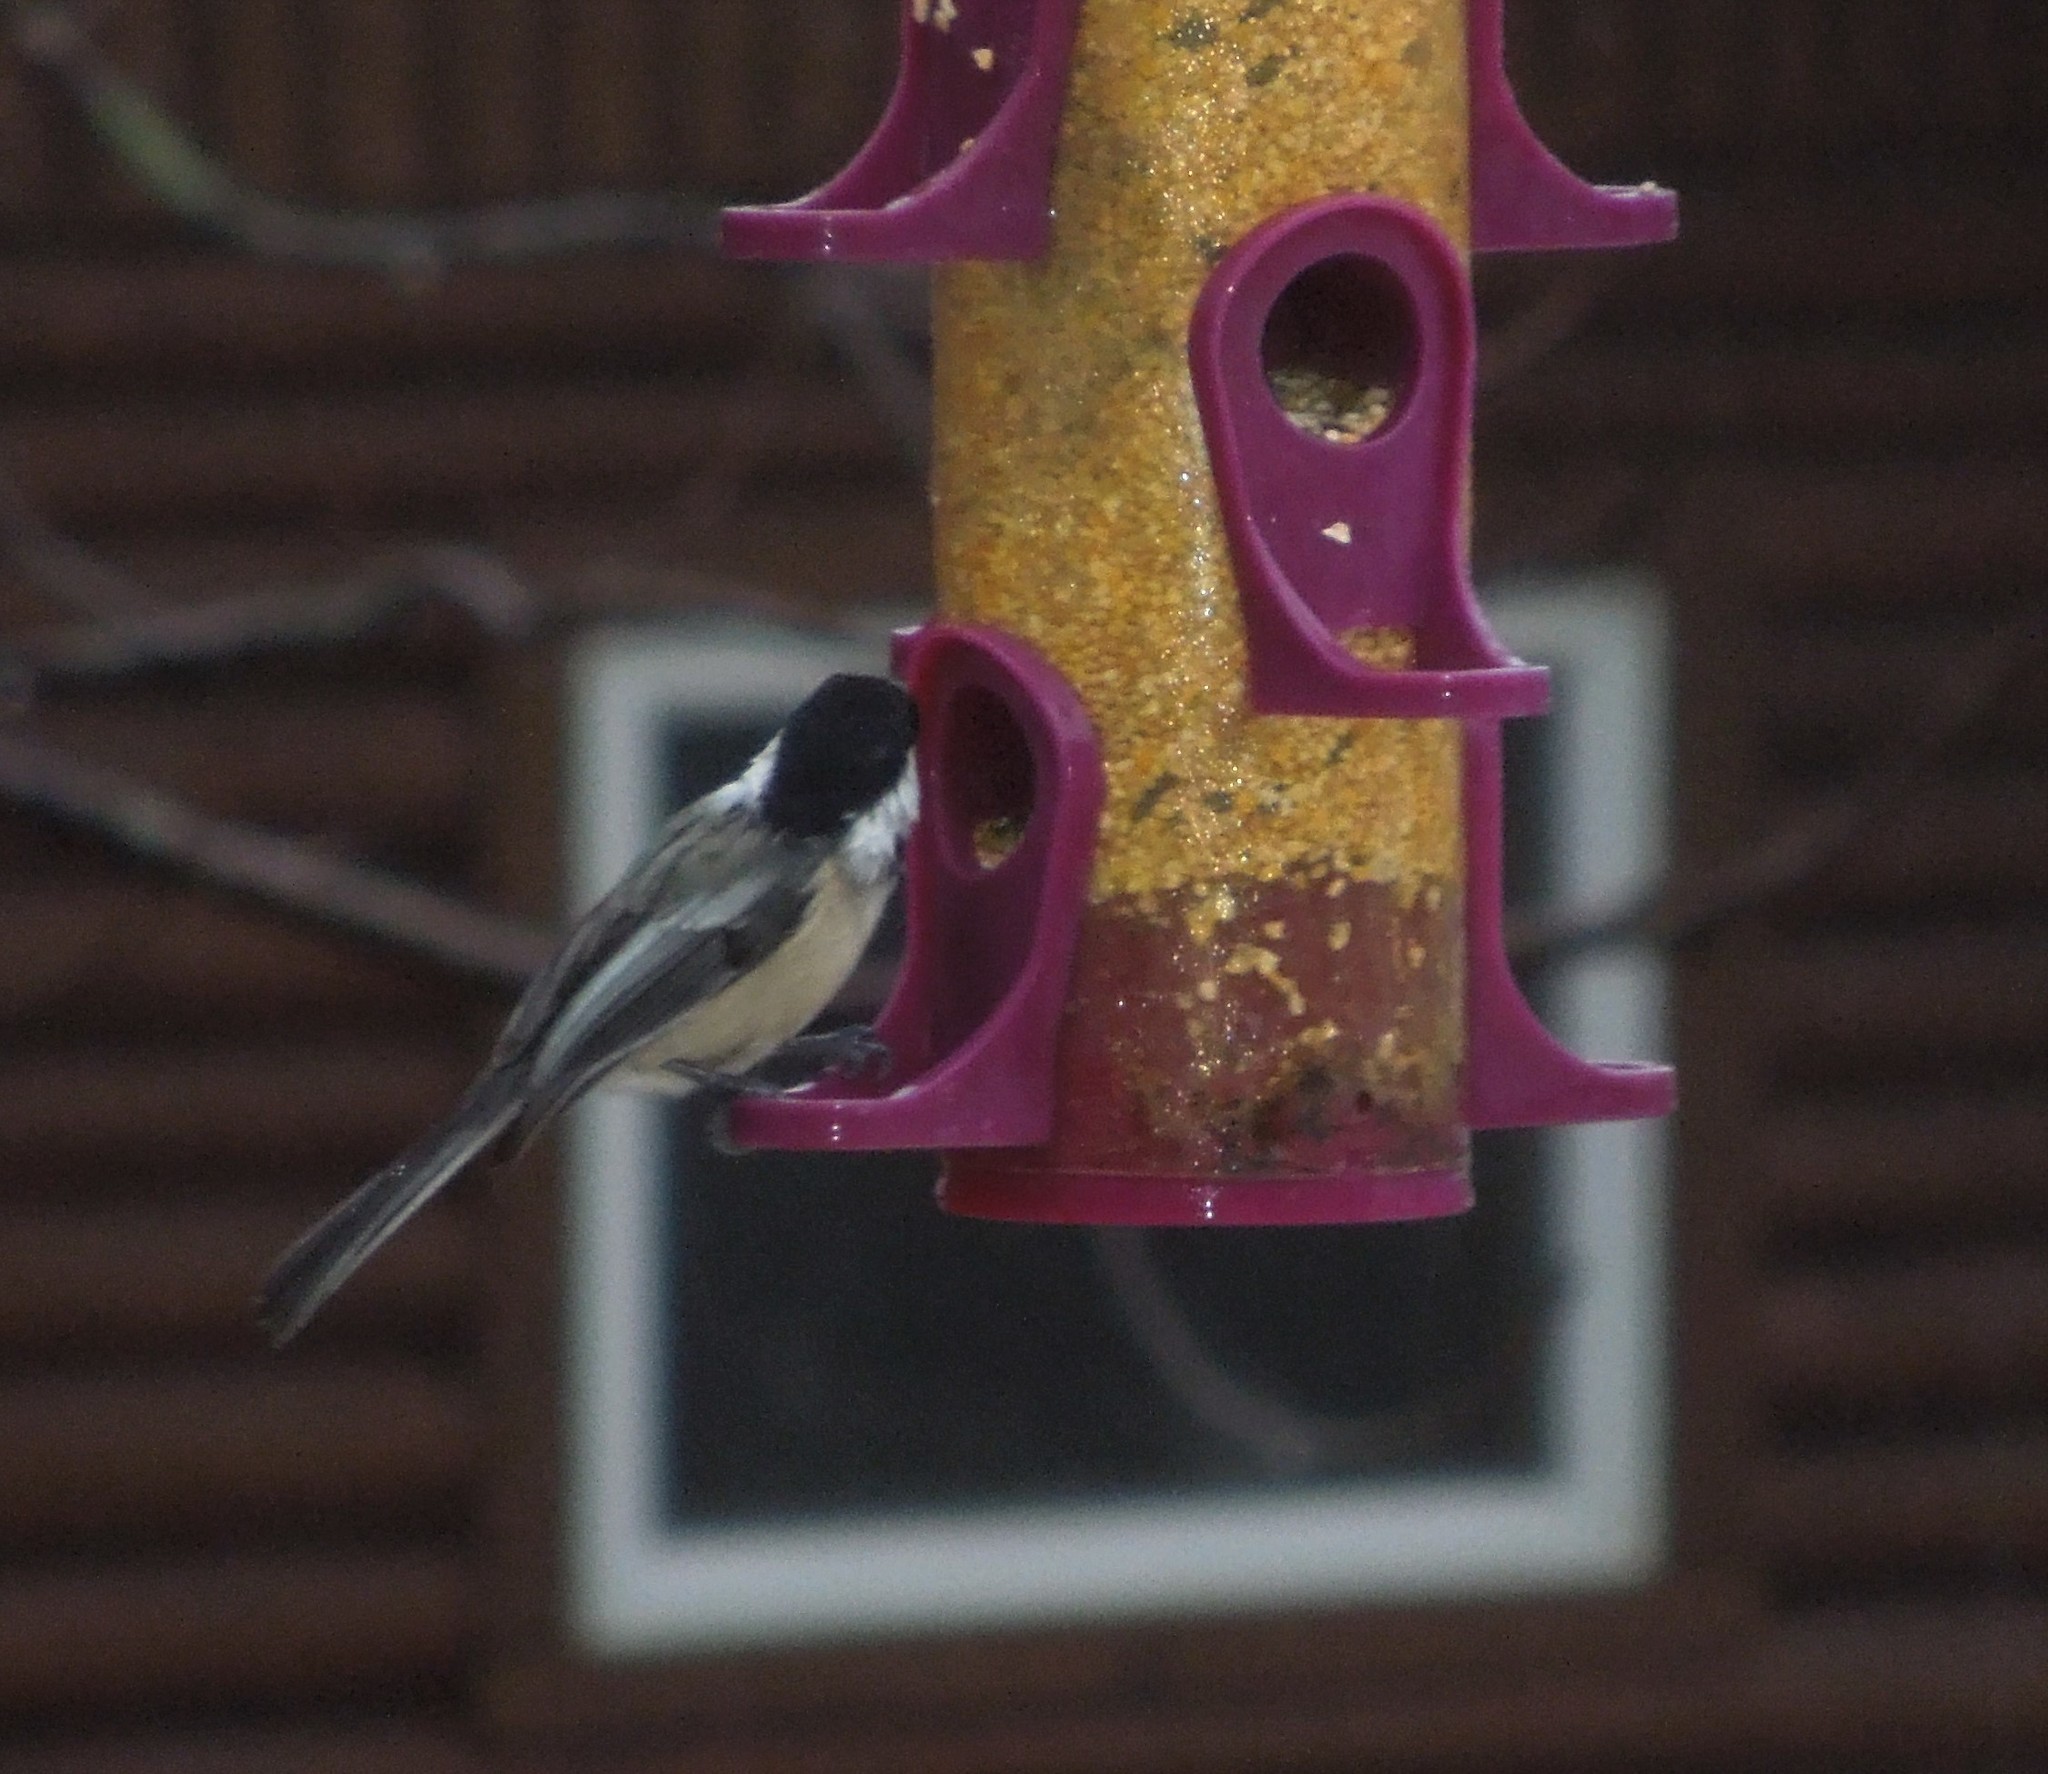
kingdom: Animalia
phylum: Chordata
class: Aves
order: Passeriformes
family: Paridae
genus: Poecile
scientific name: Poecile atricapillus
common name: Black-capped chickadee
